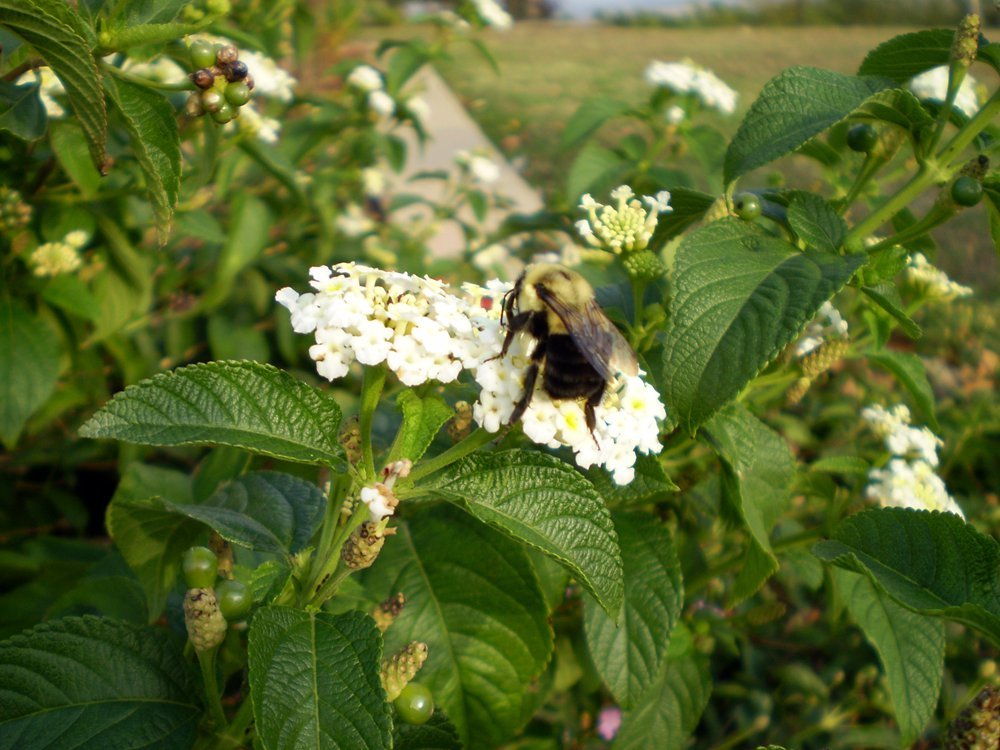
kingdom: Animalia
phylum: Arthropoda
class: Insecta
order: Hymenoptera
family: Apidae
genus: Bombus
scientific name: Bombus impatiens
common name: Common eastern bumble bee
